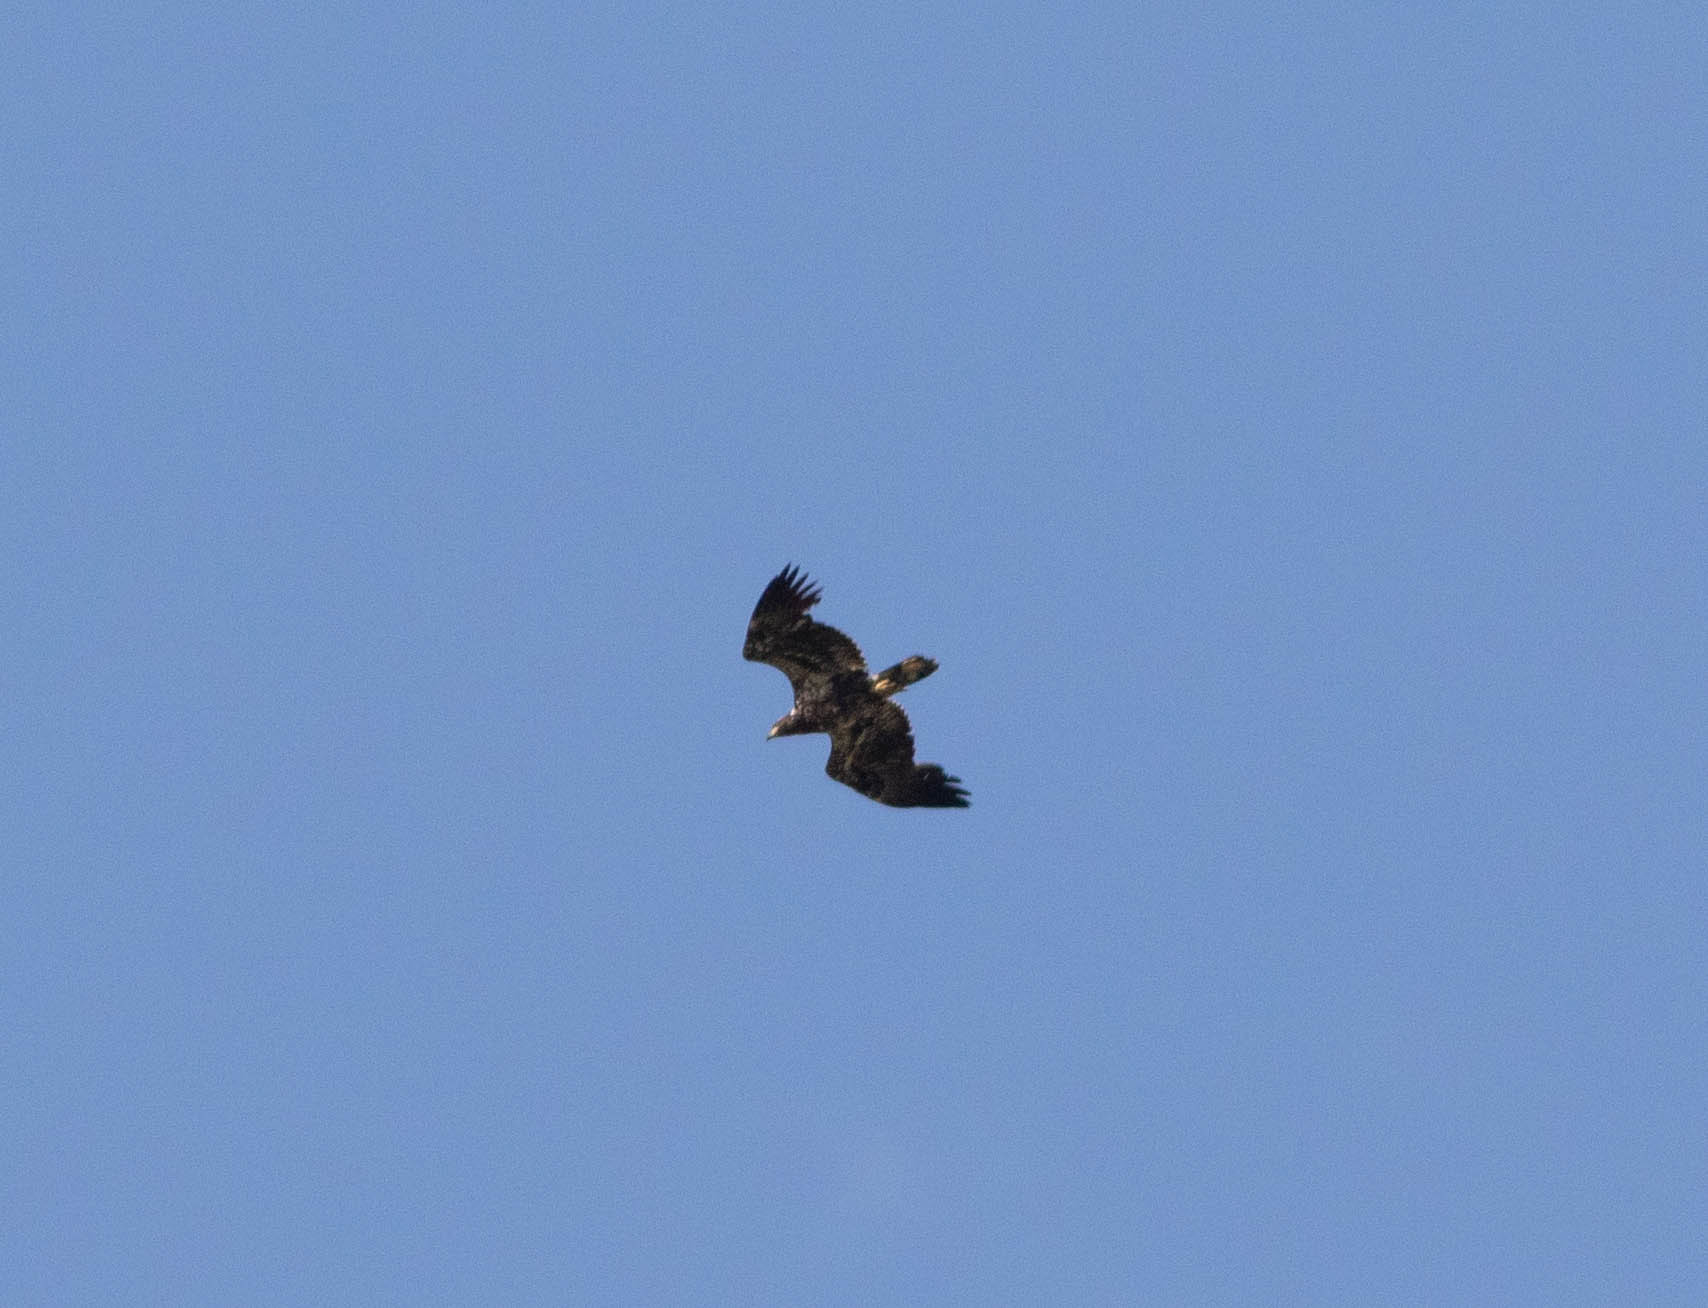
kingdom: Animalia
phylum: Chordata
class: Aves
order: Accipitriformes
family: Accipitridae
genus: Haliaeetus
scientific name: Haliaeetus leucocephalus
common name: Bald eagle
